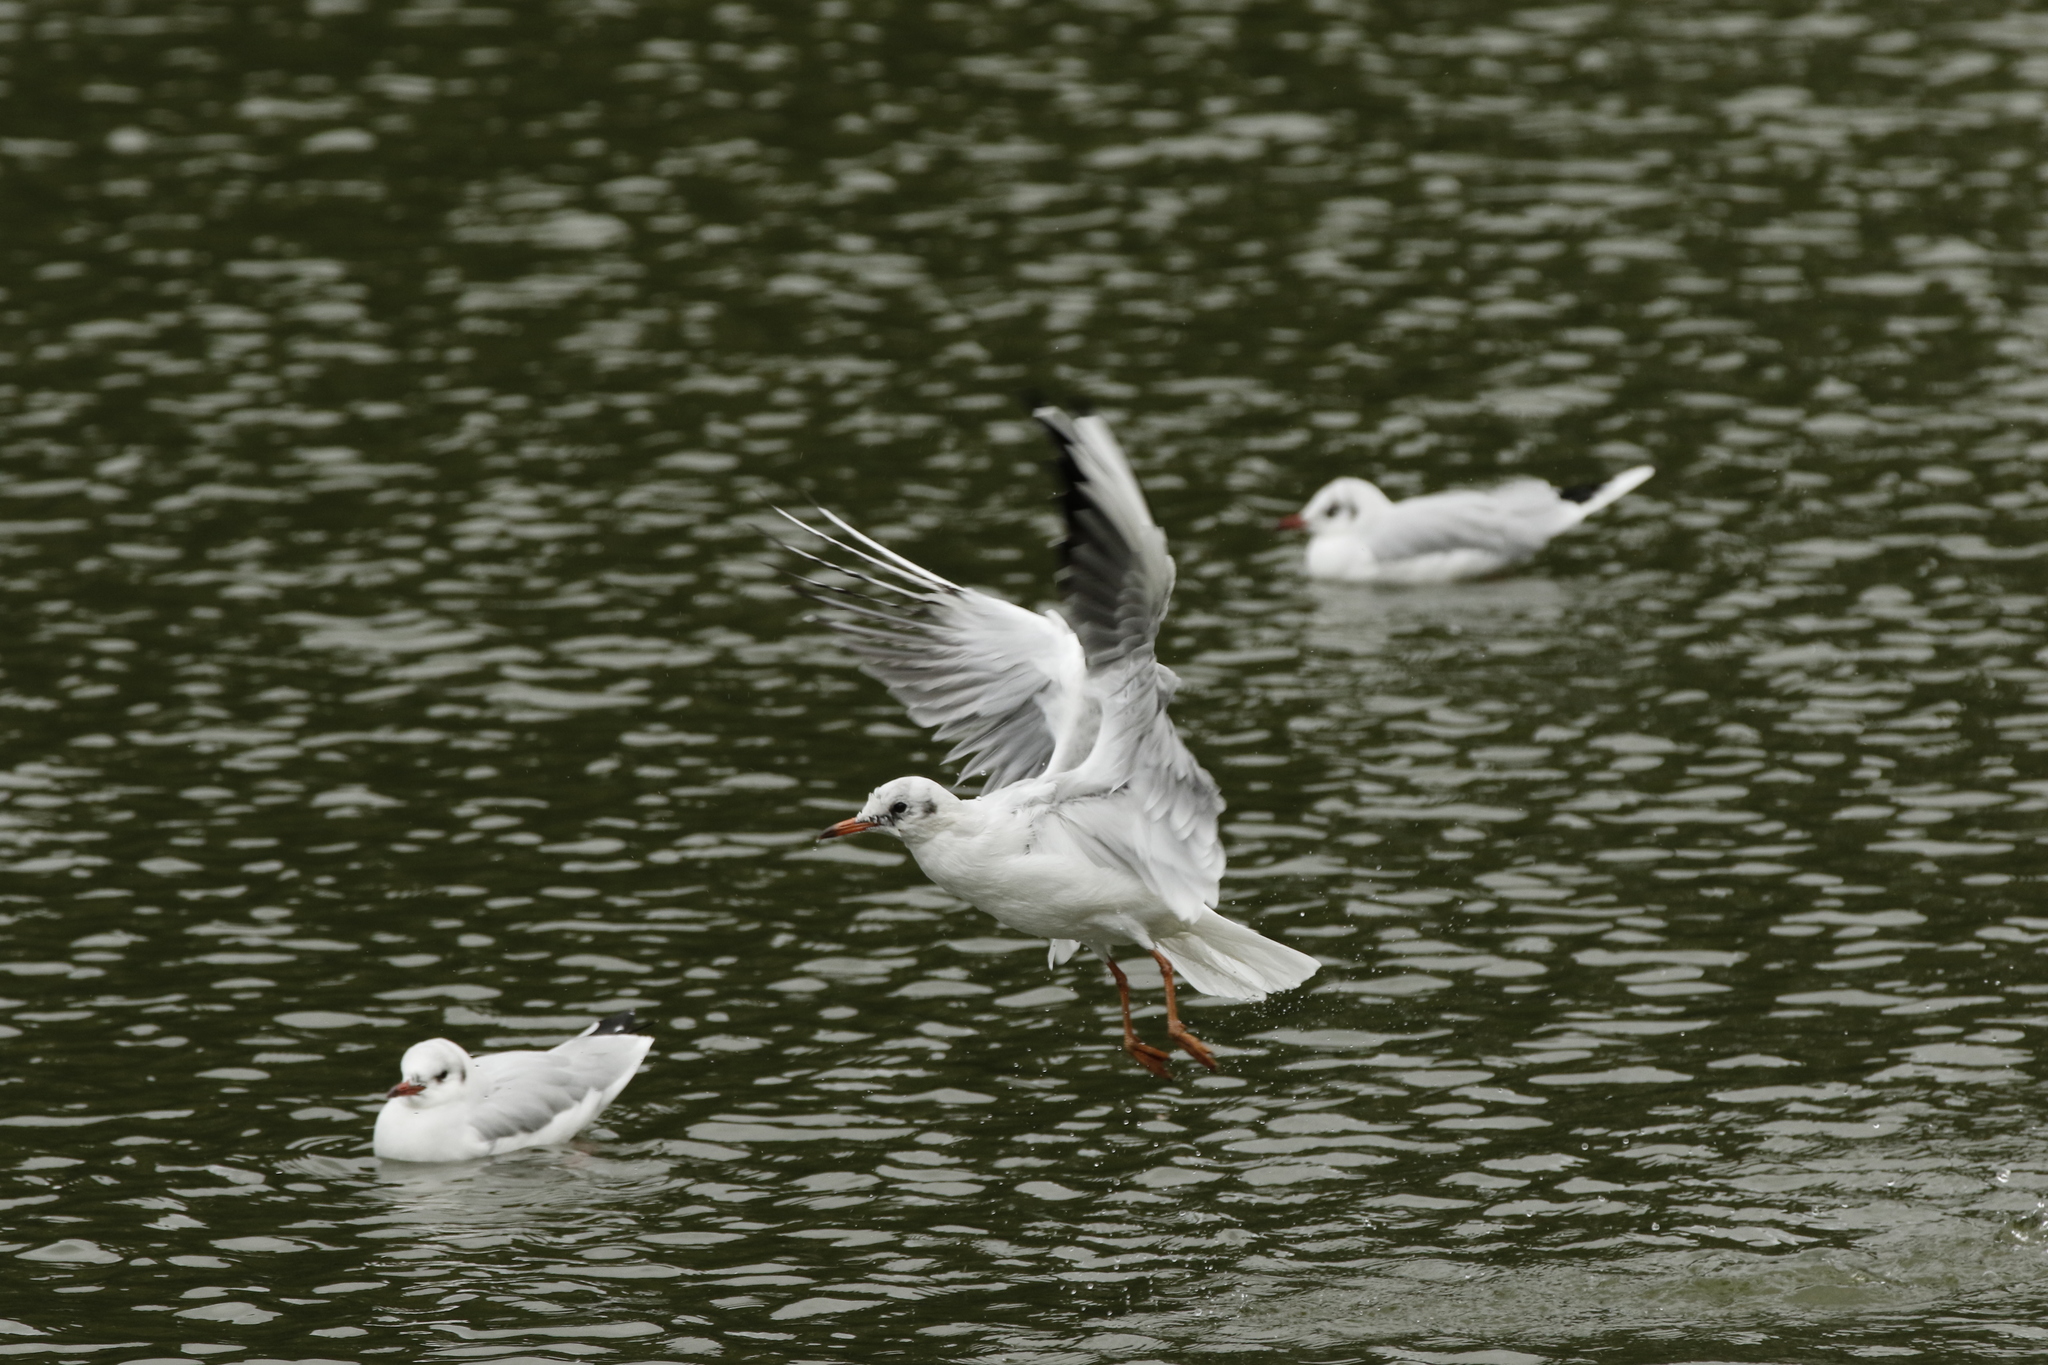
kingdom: Animalia
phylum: Chordata
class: Aves
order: Charadriiformes
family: Laridae
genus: Chroicocephalus
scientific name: Chroicocephalus ridibundus
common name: Black-headed gull
